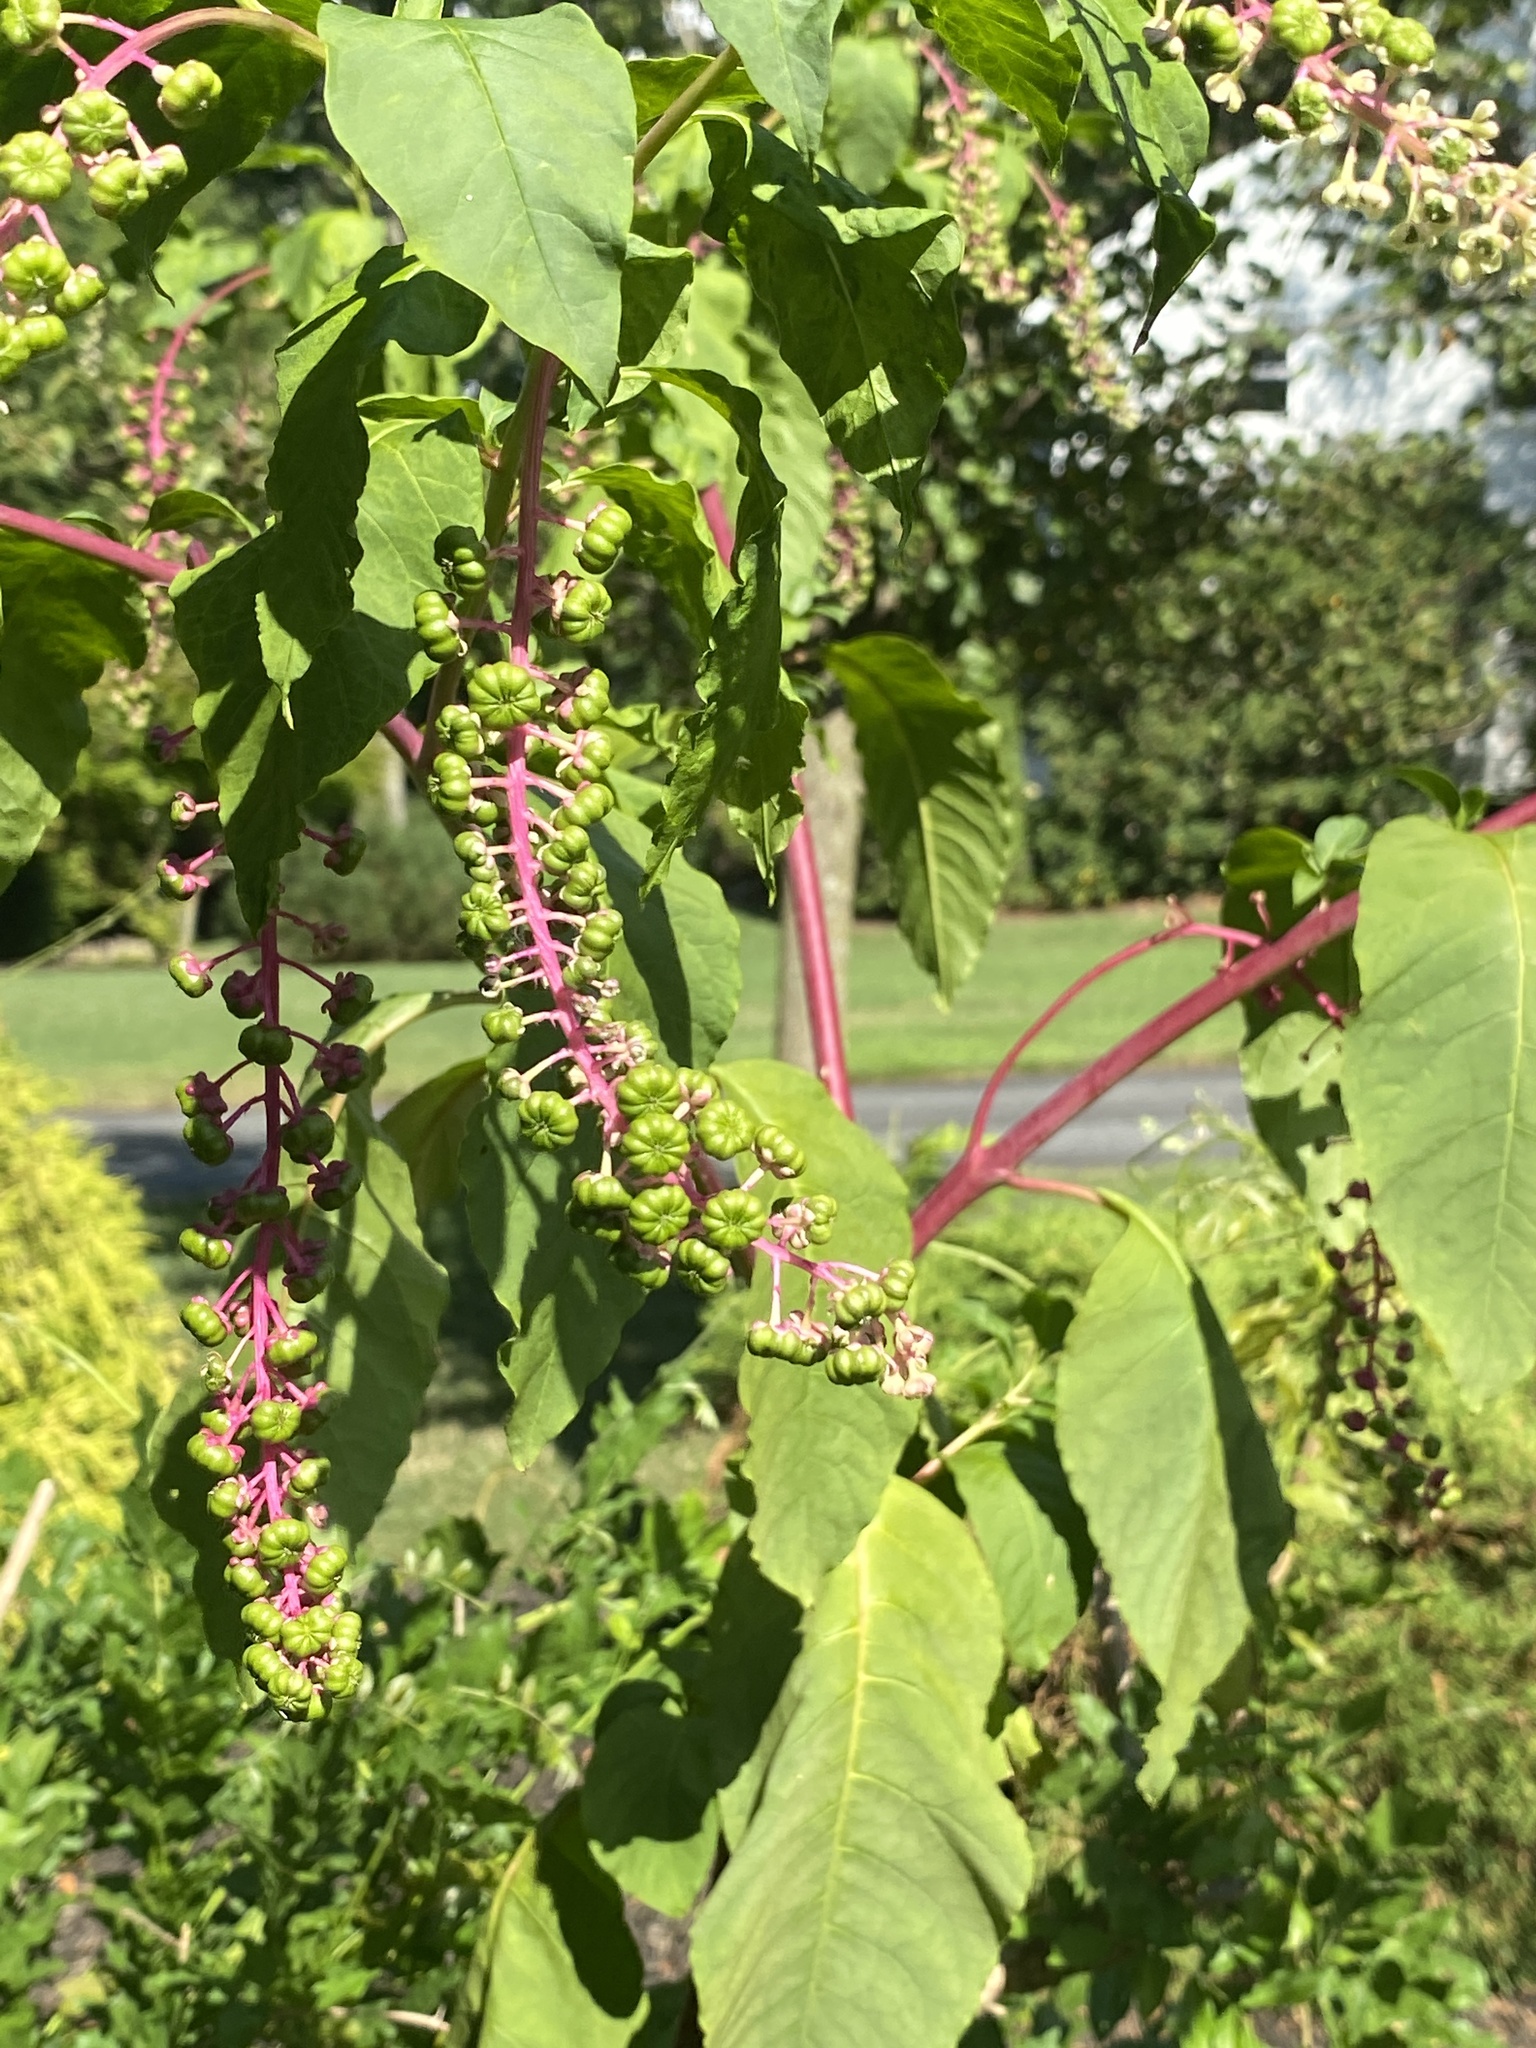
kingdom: Plantae
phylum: Tracheophyta
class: Magnoliopsida
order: Caryophyllales
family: Phytolaccaceae
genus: Phytolacca
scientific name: Phytolacca americana
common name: American pokeweed
